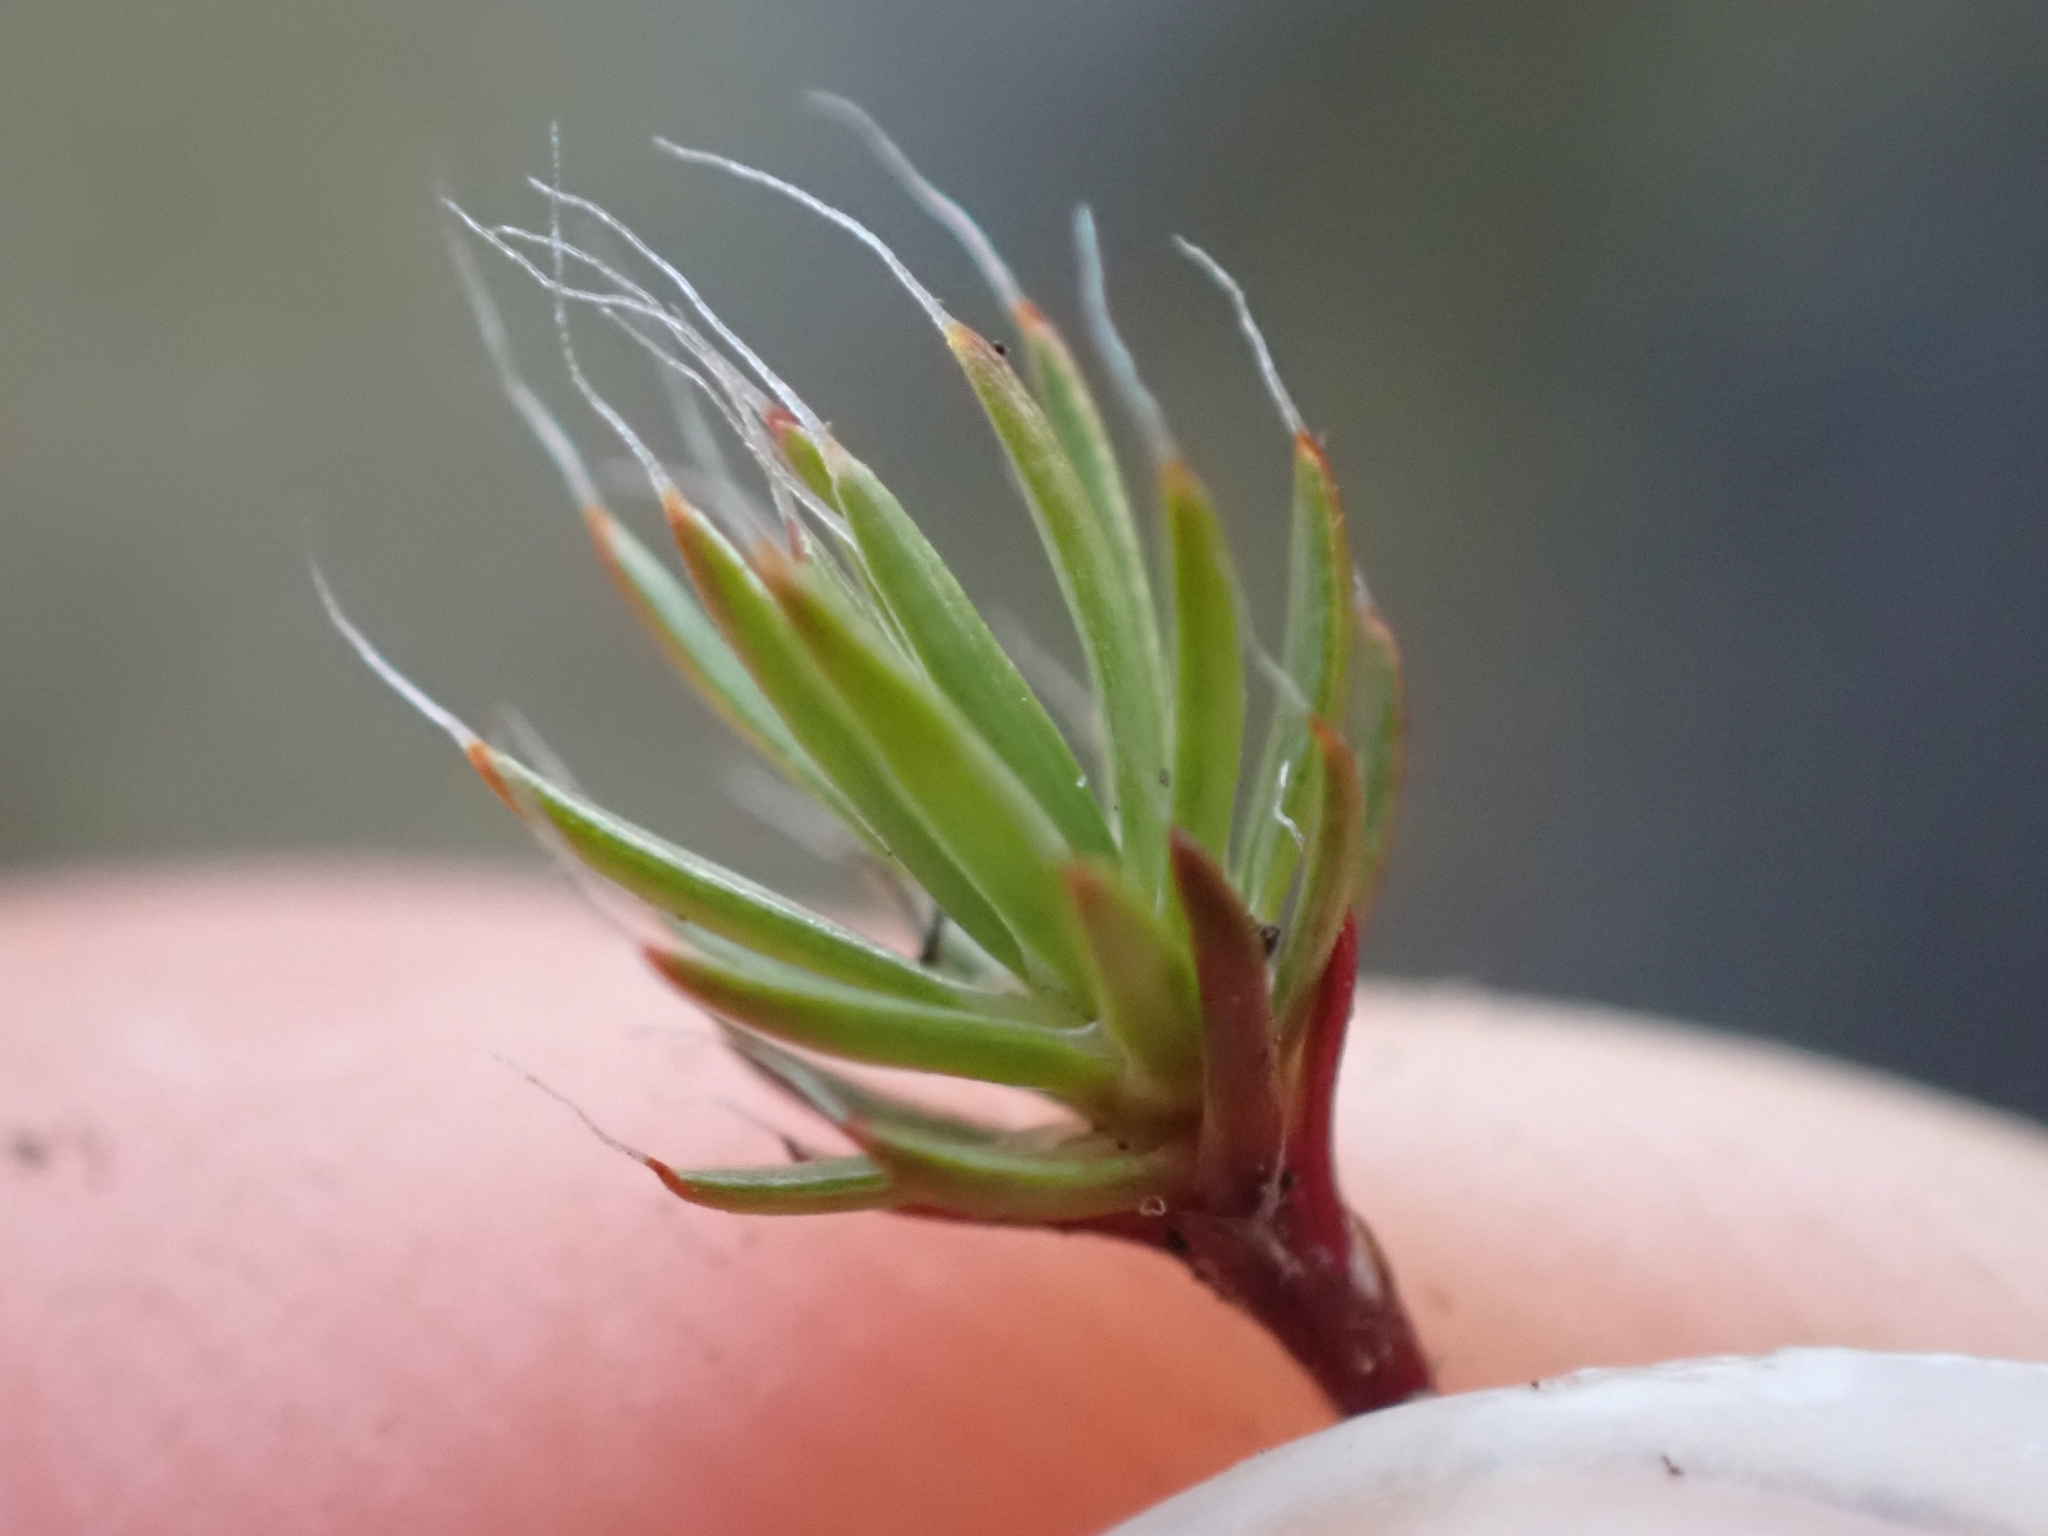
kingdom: Plantae
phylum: Bryophyta
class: Polytrichopsida
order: Polytrichales
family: Polytrichaceae
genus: Polytrichum
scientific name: Polytrichum piliferum
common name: Bristly haircap
